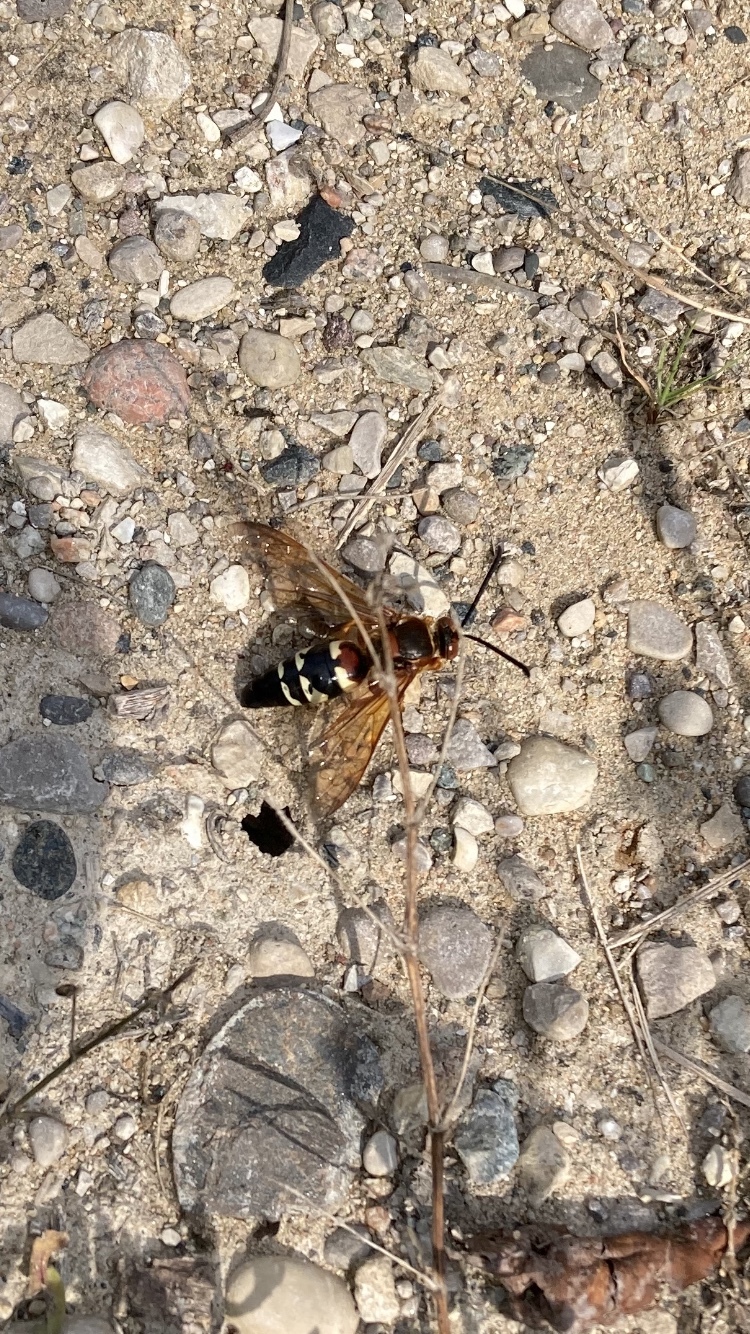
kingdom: Animalia
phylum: Arthropoda
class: Insecta
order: Hymenoptera
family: Crabronidae
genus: Sphecius
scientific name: Sphecius speciosus
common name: Cicada killer
